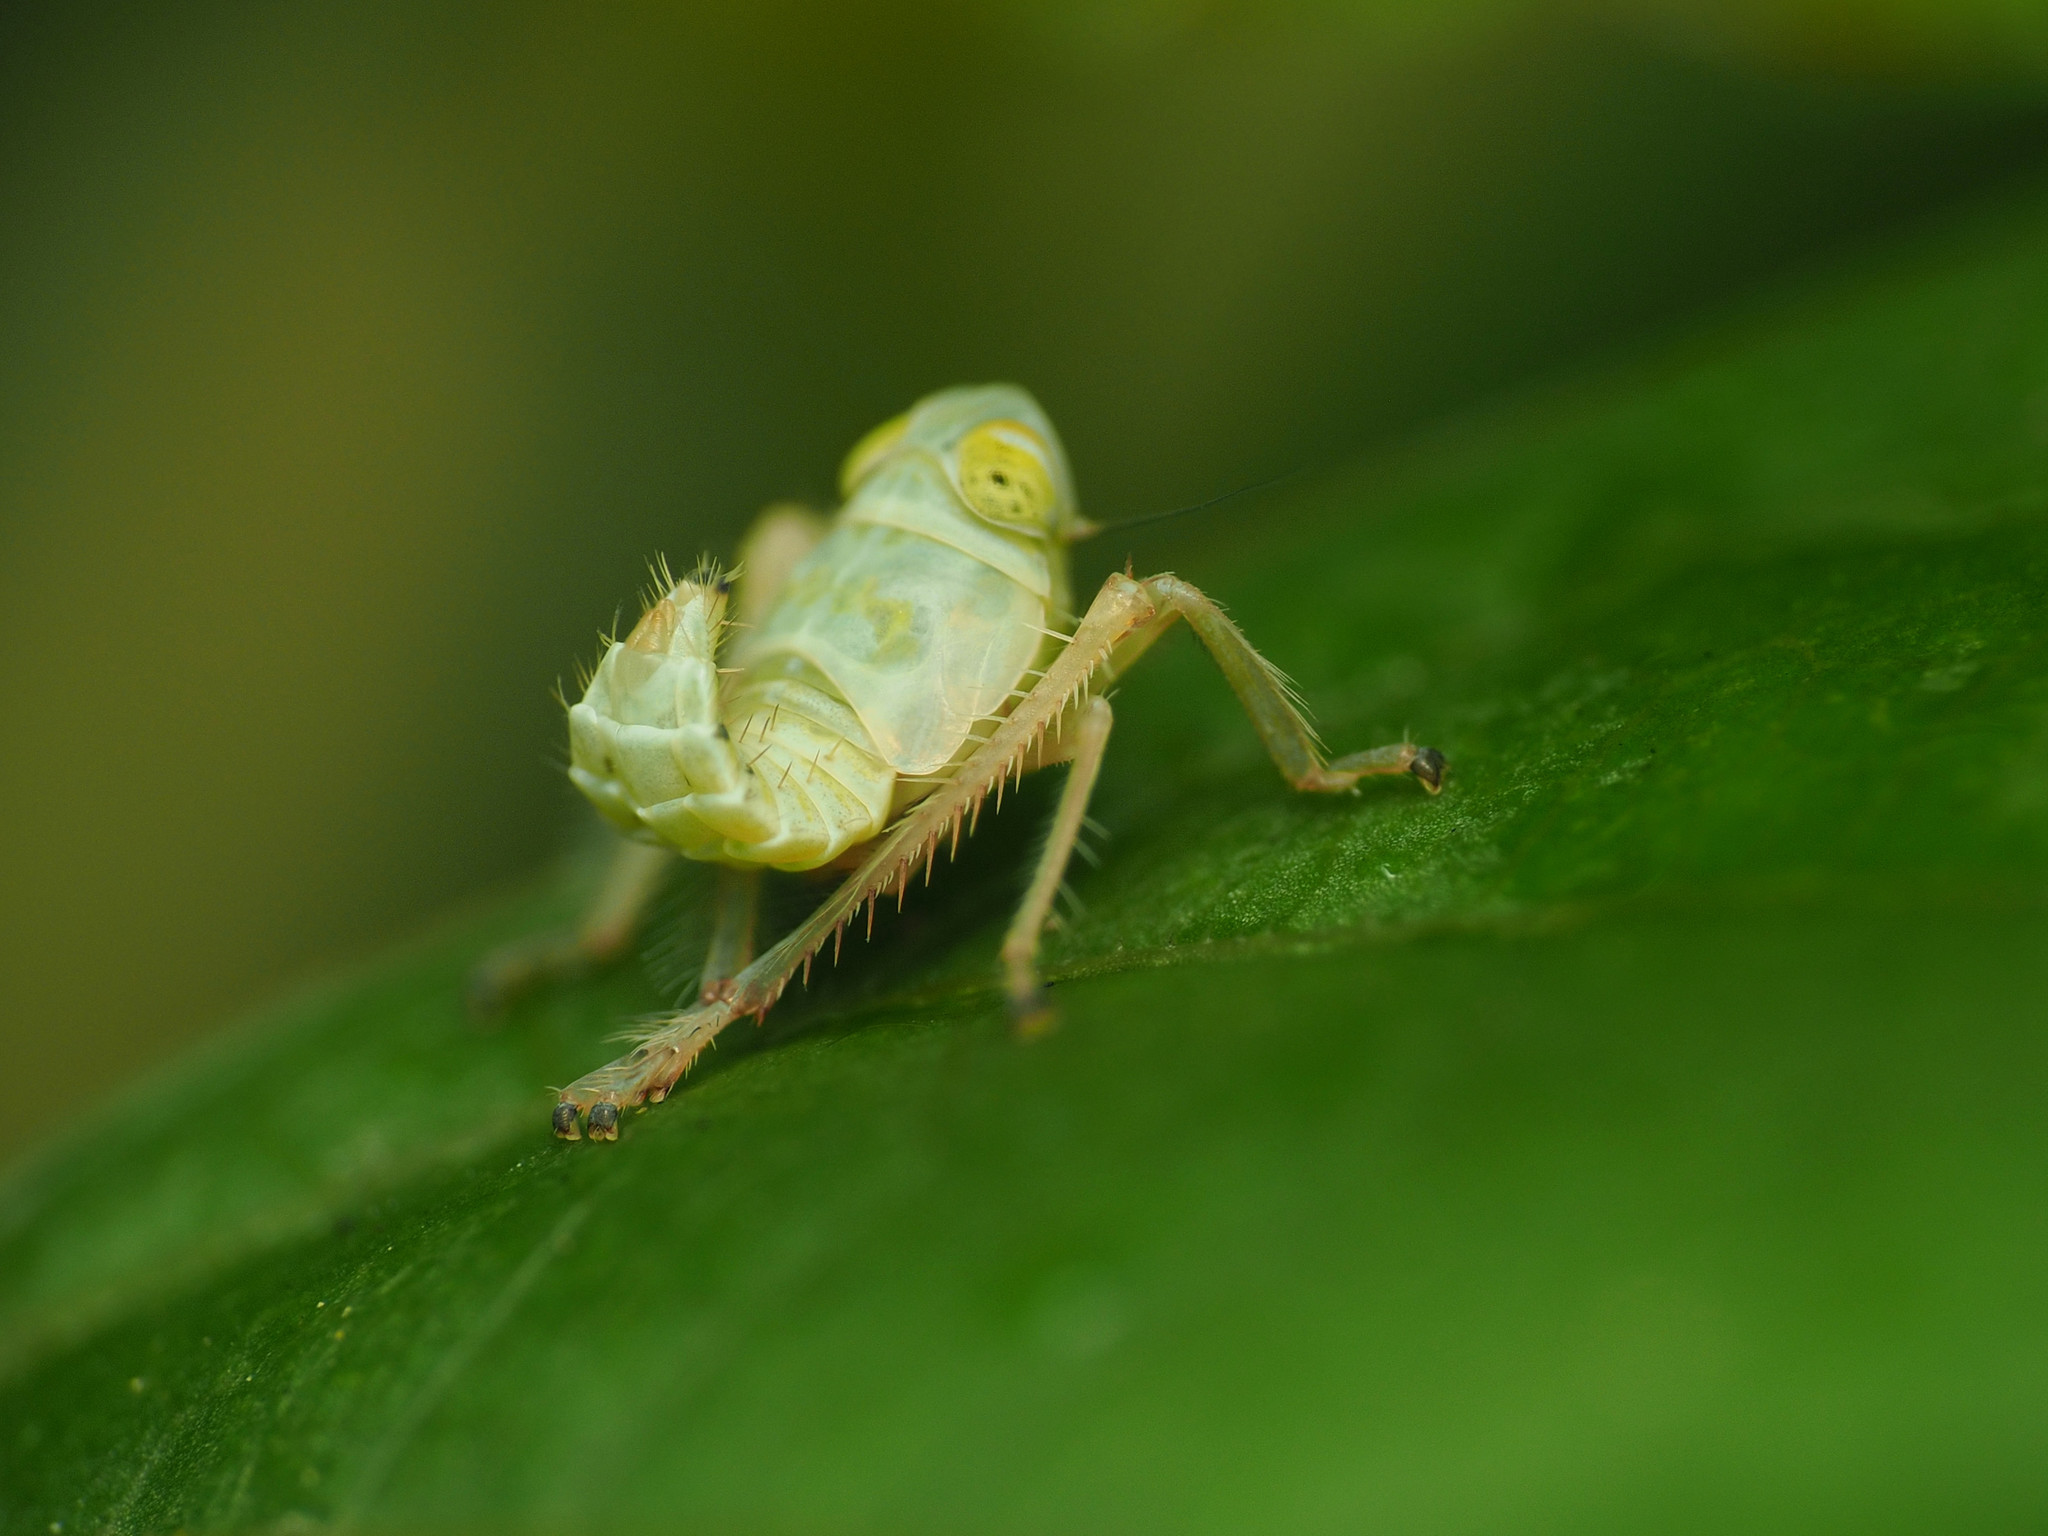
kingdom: Animalia
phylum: Arthropoda
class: Insecta
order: Hemiptera
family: Cicadellidae
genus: Jikradia
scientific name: Jikradia olitoria
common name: Coppery leafhopper
